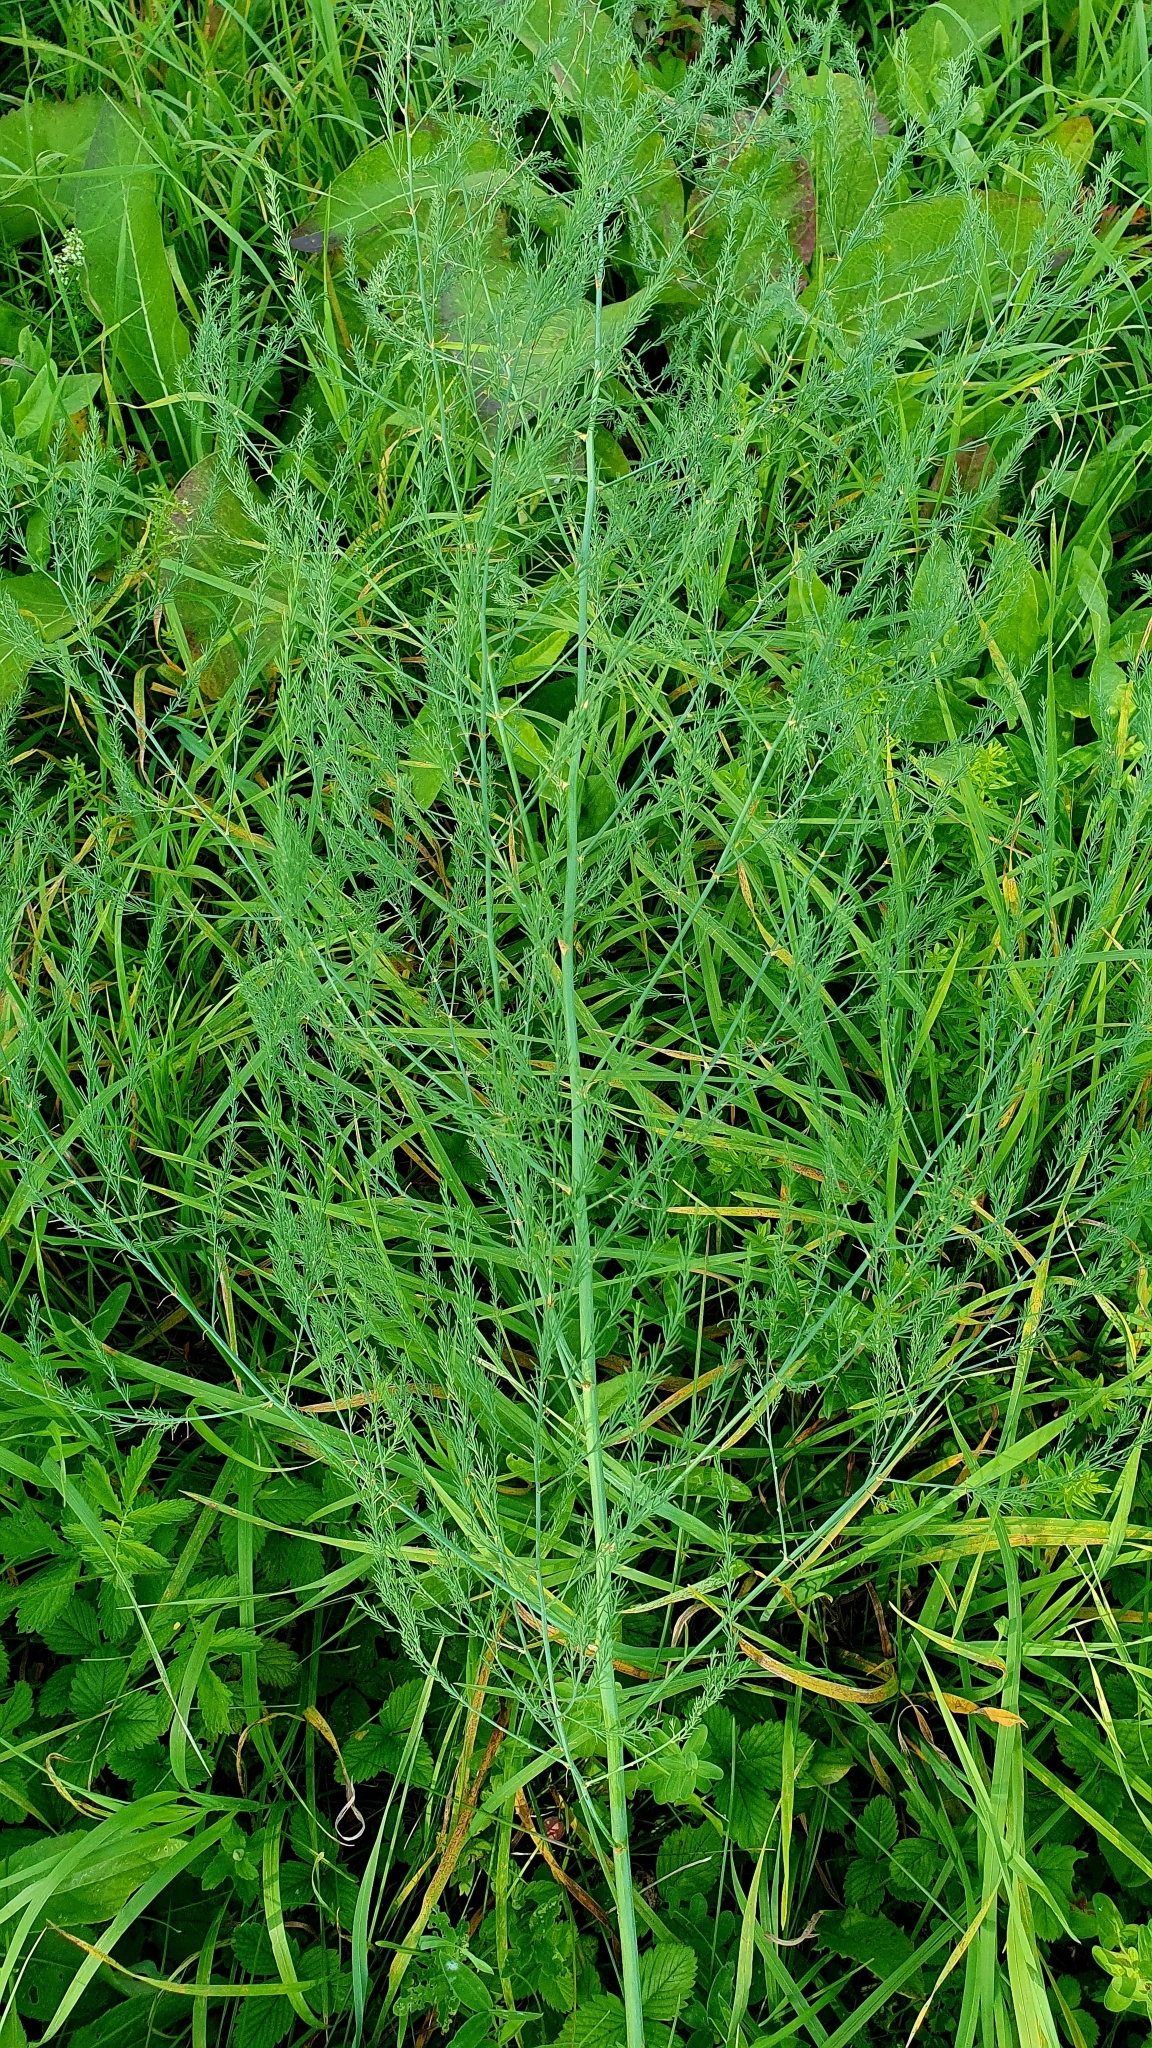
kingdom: Plantae
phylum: Tracheophyta
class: Liliopsida
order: Asparagales
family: Asparagaceae
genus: Asparagus
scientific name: Asparagus officinalis
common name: Garden asparagus
